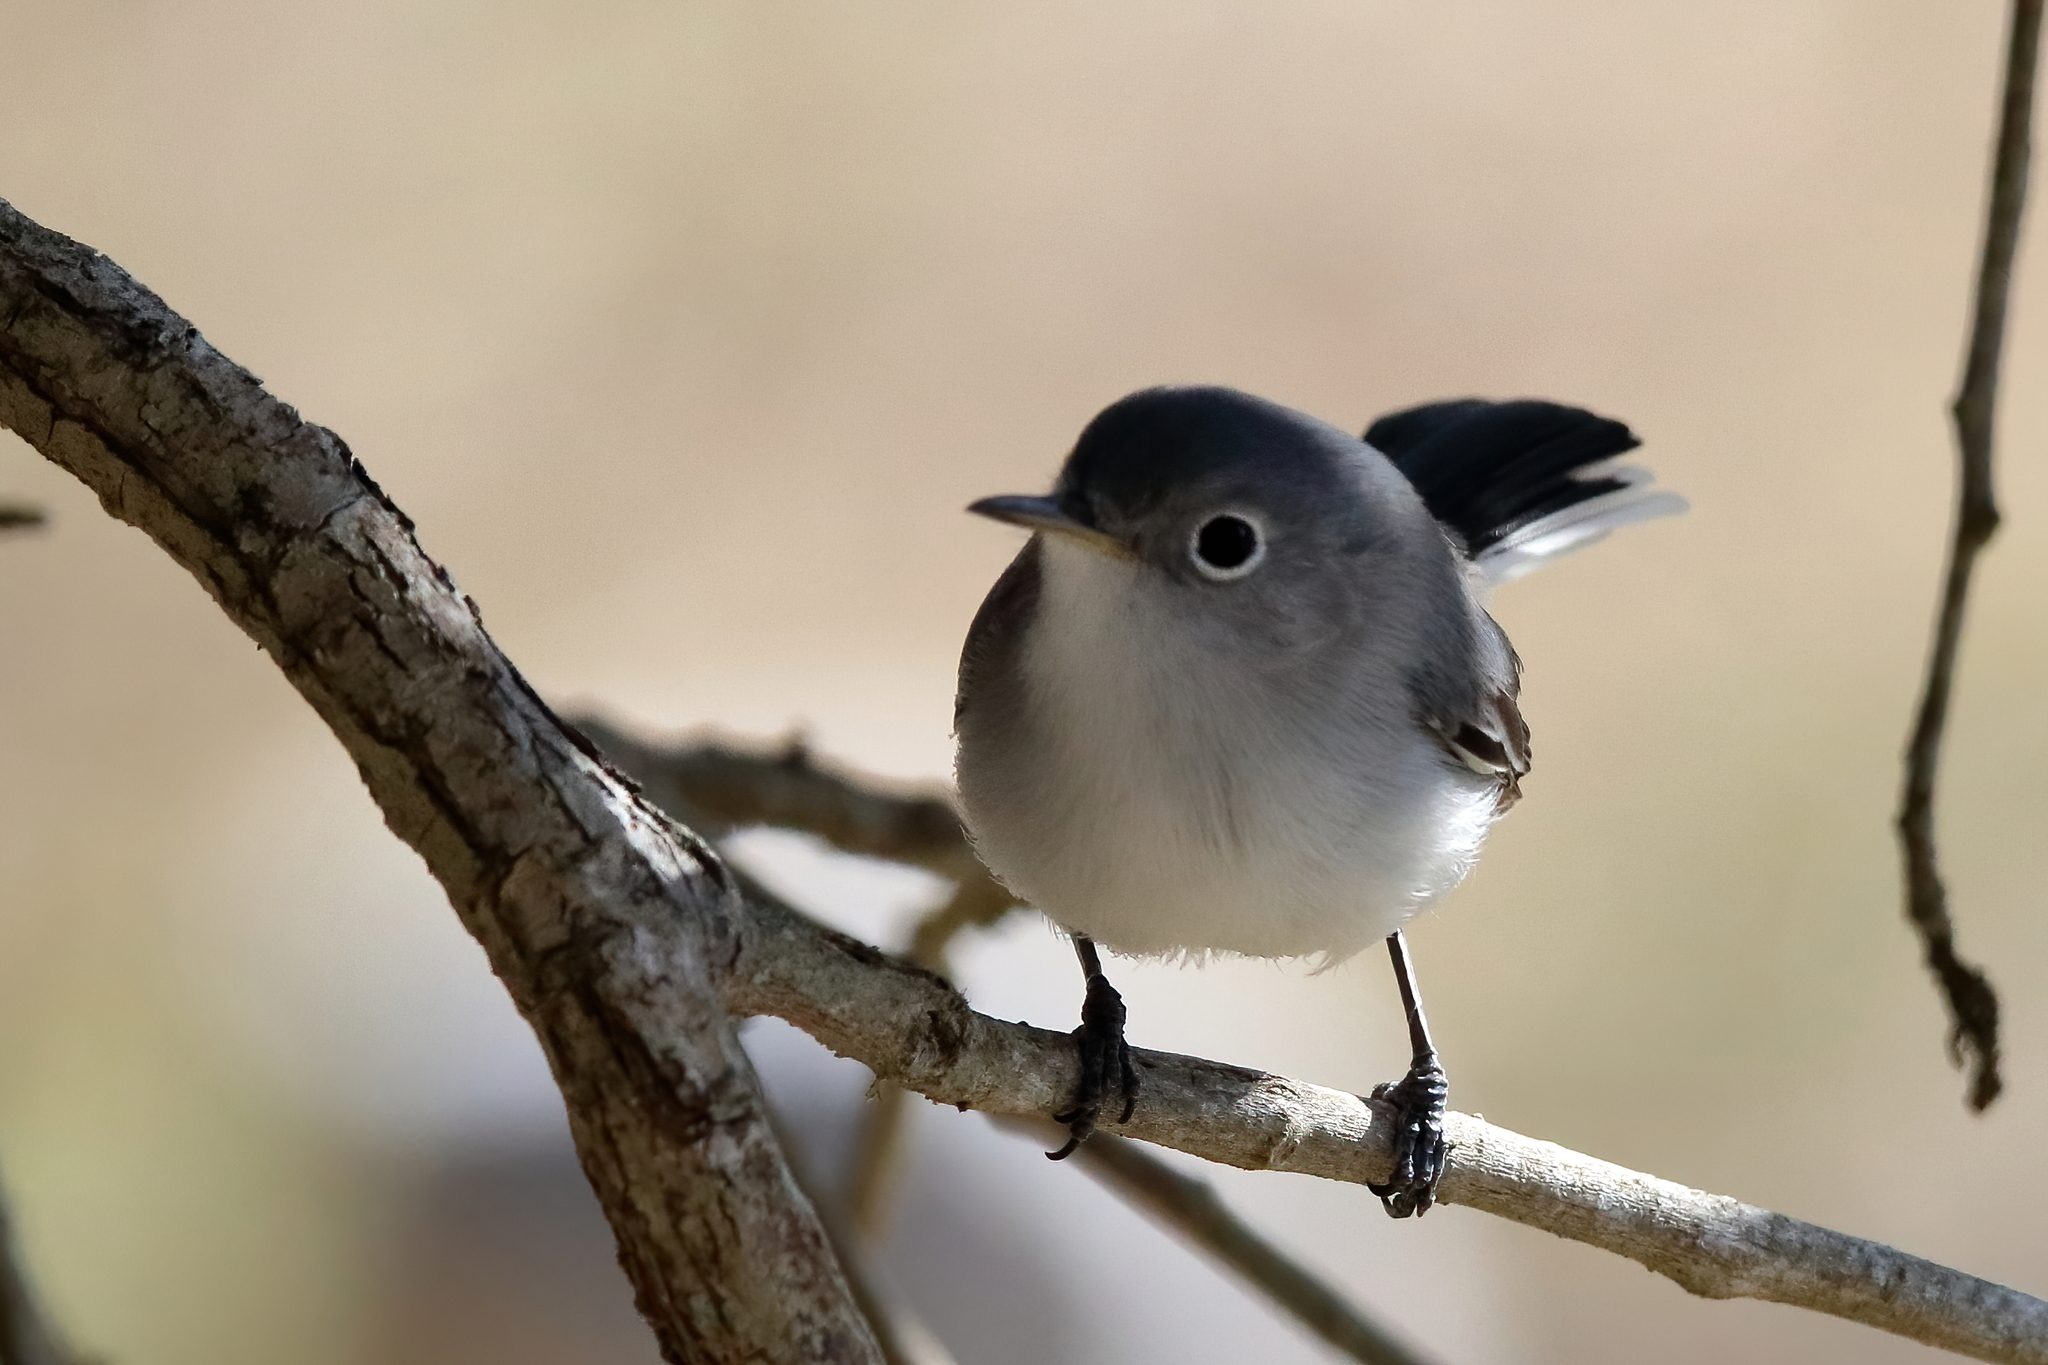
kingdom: Animalia
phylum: Chordata
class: Aves
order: Passeriformes
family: Polioptilidae
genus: Polioptila
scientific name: Polioptila caerulea
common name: Blue-gray gnatcatcher
